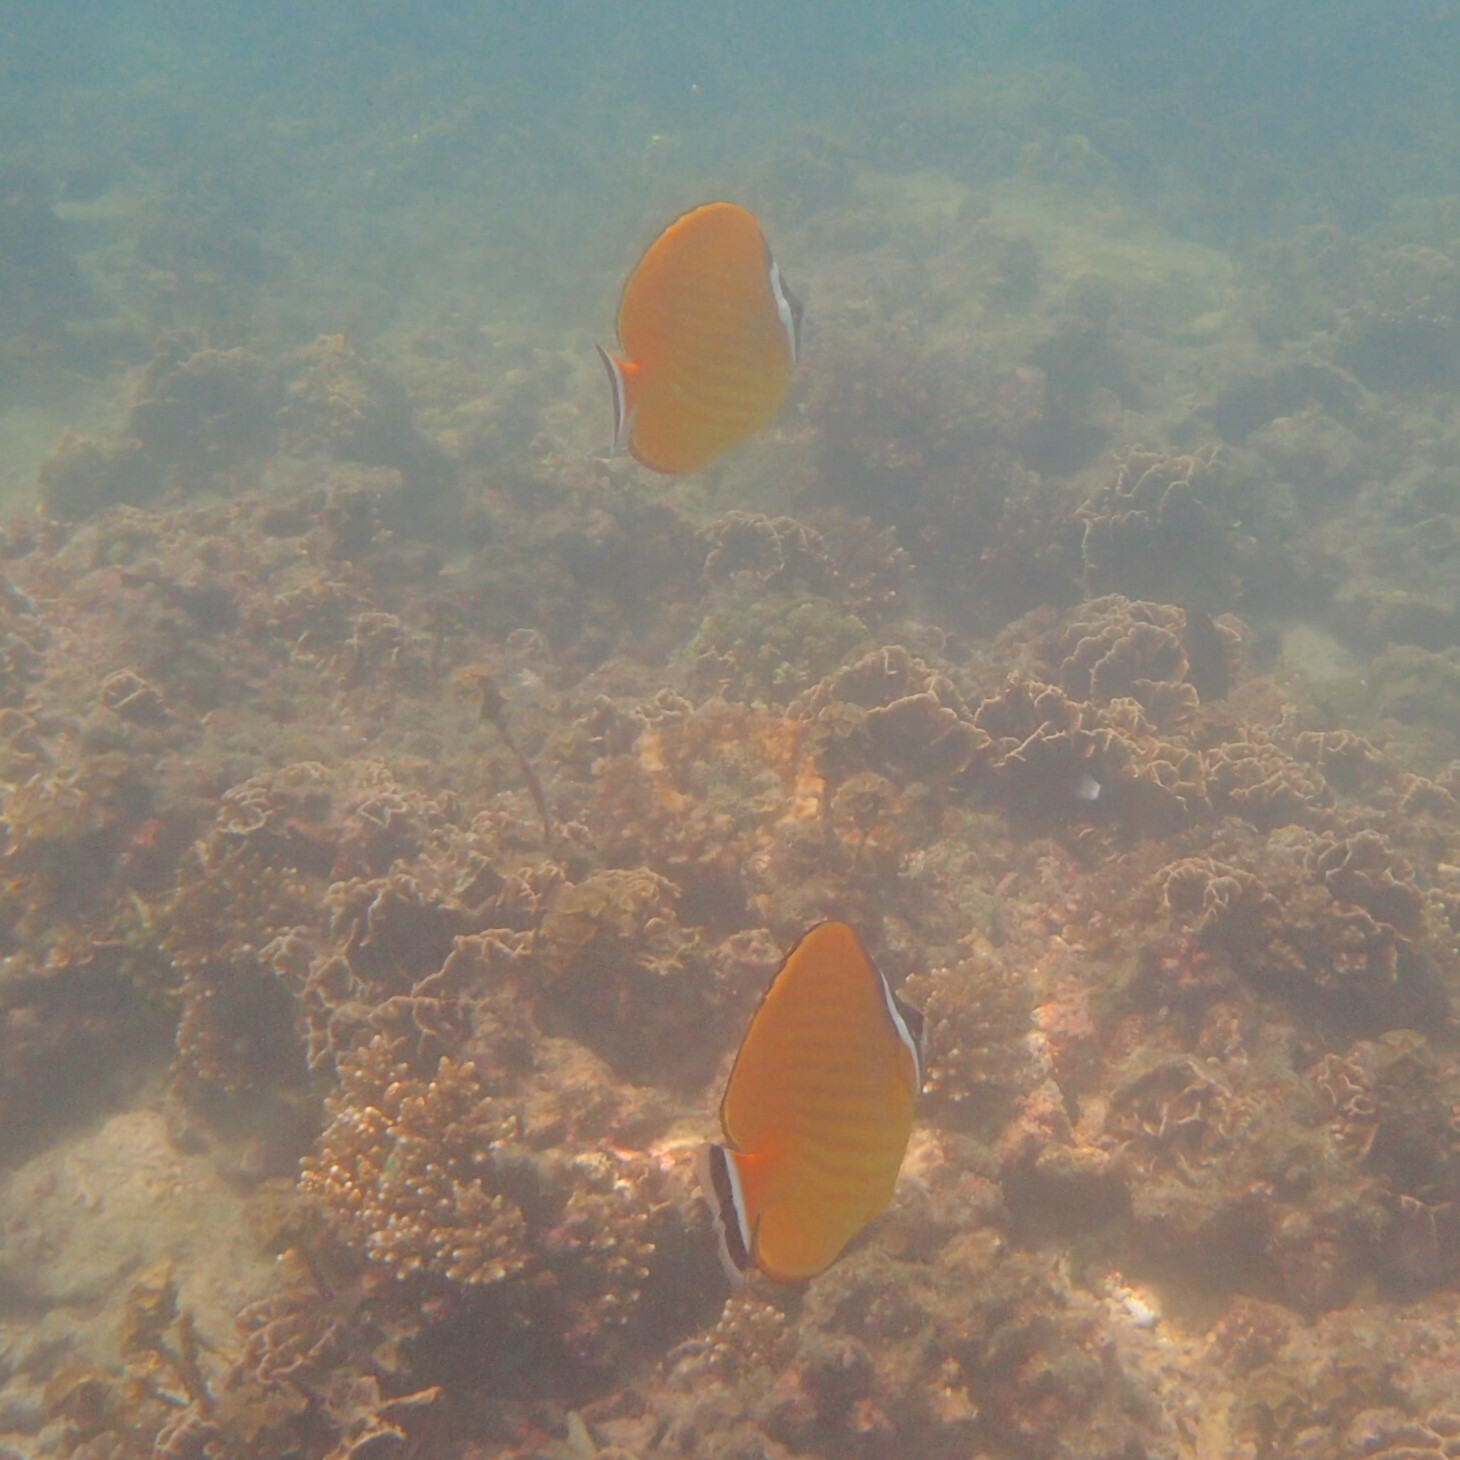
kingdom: Animalia
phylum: Chordata
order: Perciformes
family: Chaetodontidae
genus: Chaetodon
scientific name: Chaetodon wiebeli
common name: Butterflyfish
